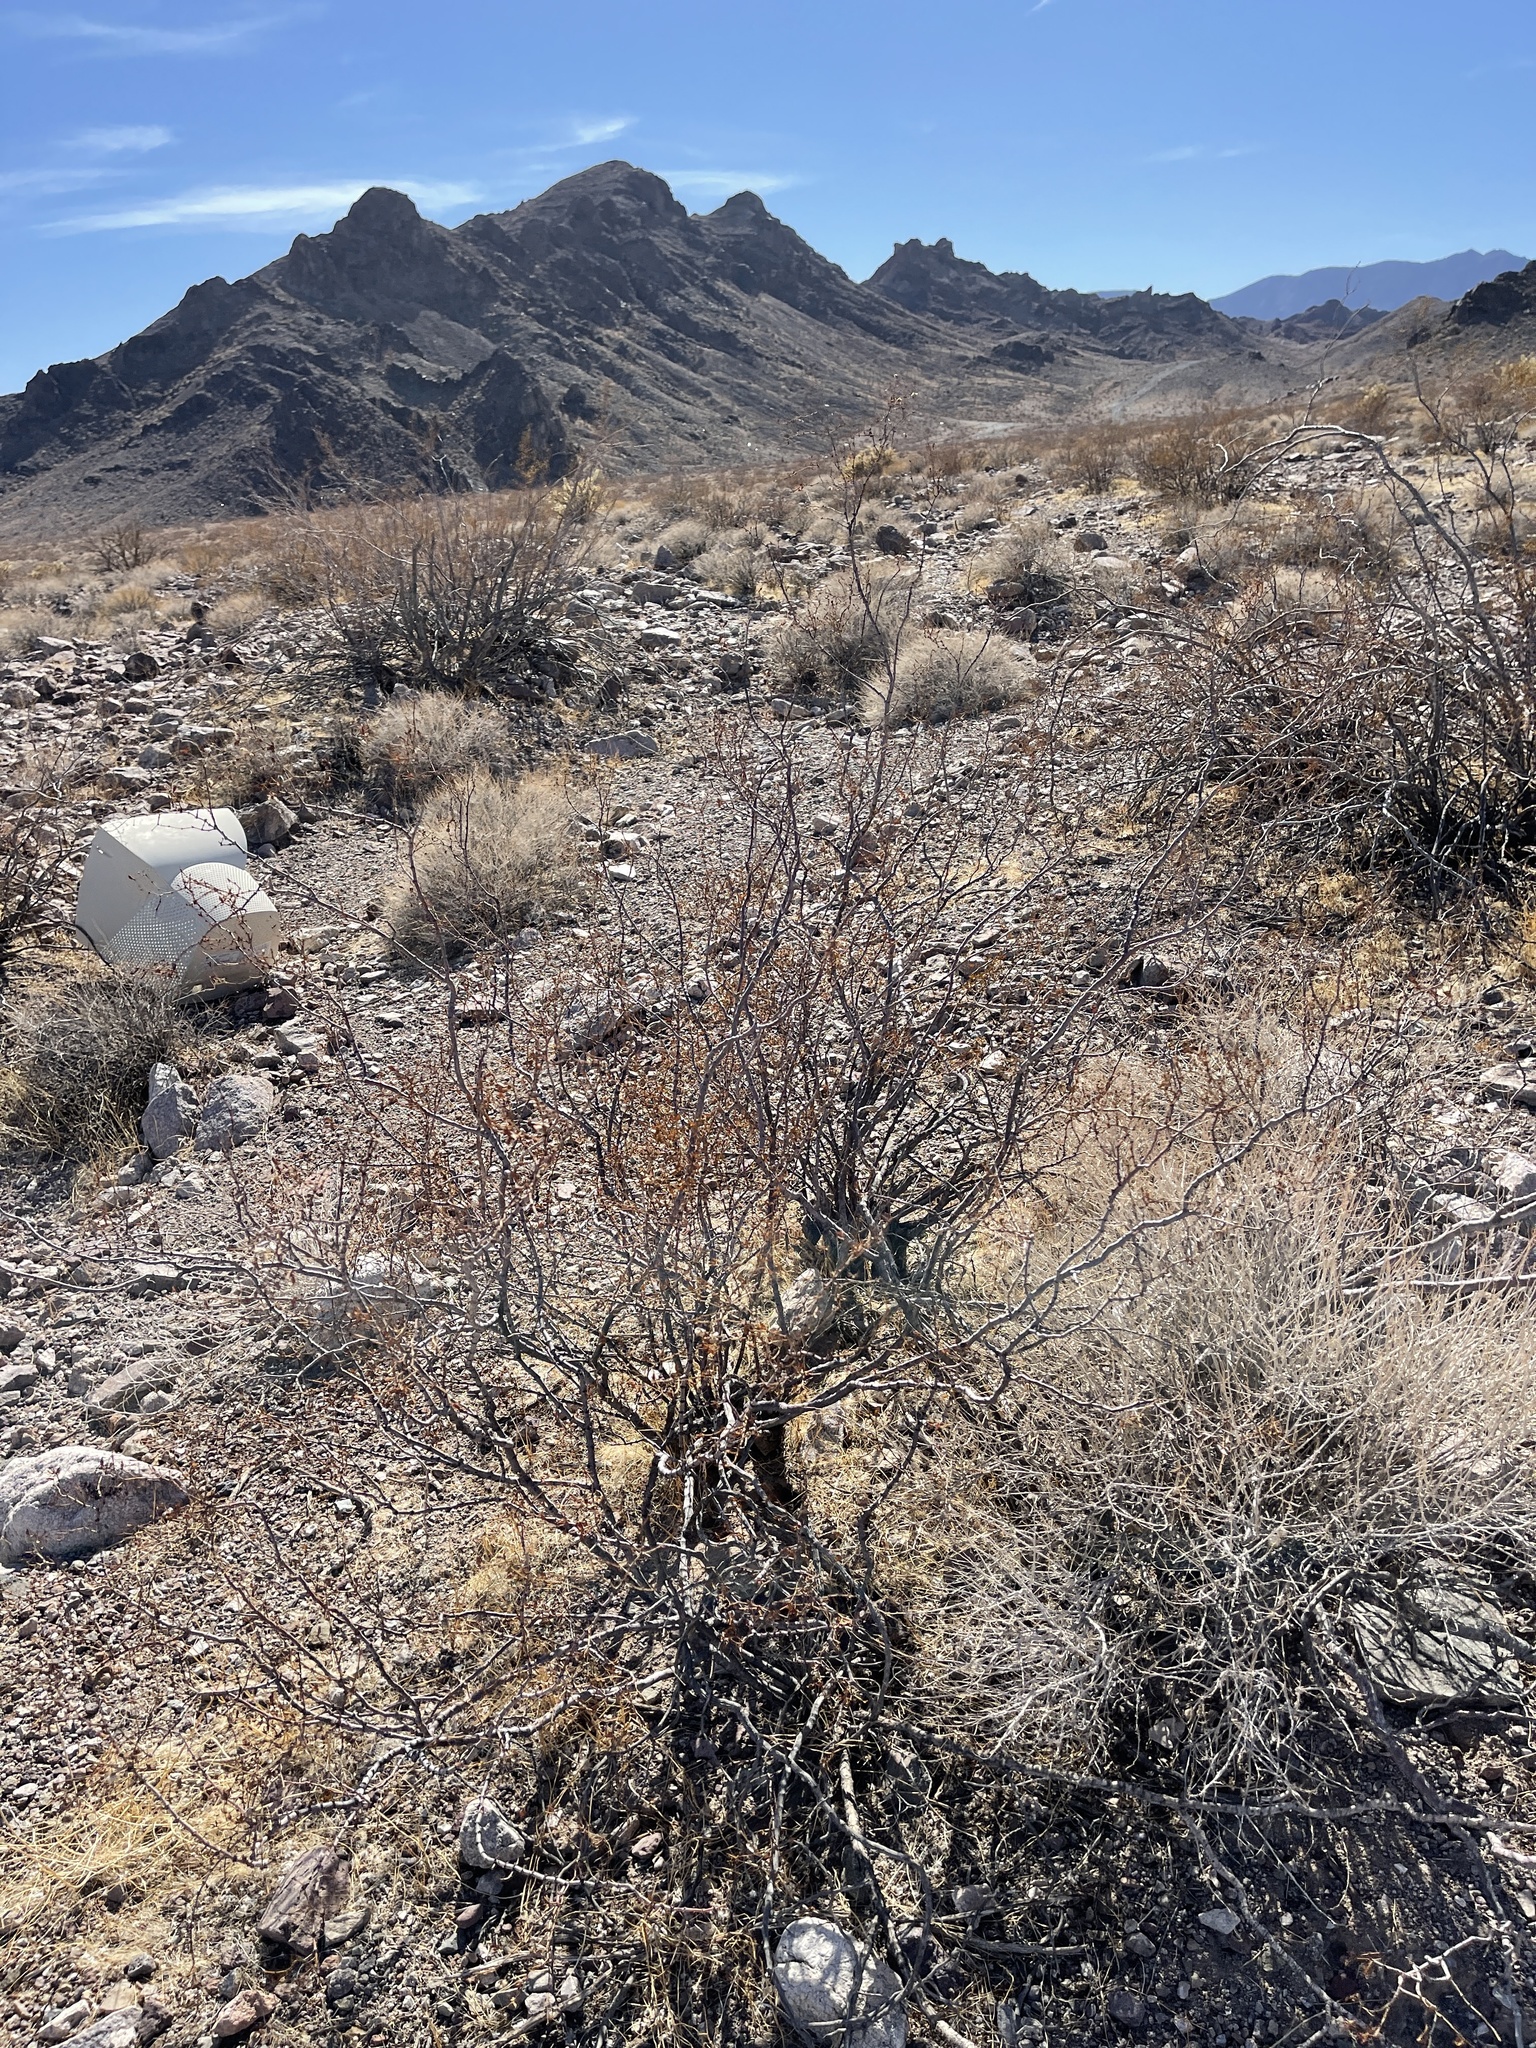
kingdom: Plantae
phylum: Tracheophyta
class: Magnoliopsida
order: Zygophyllales
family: Zygophyllaceae
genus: Larrea
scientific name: Larrea tridentata
